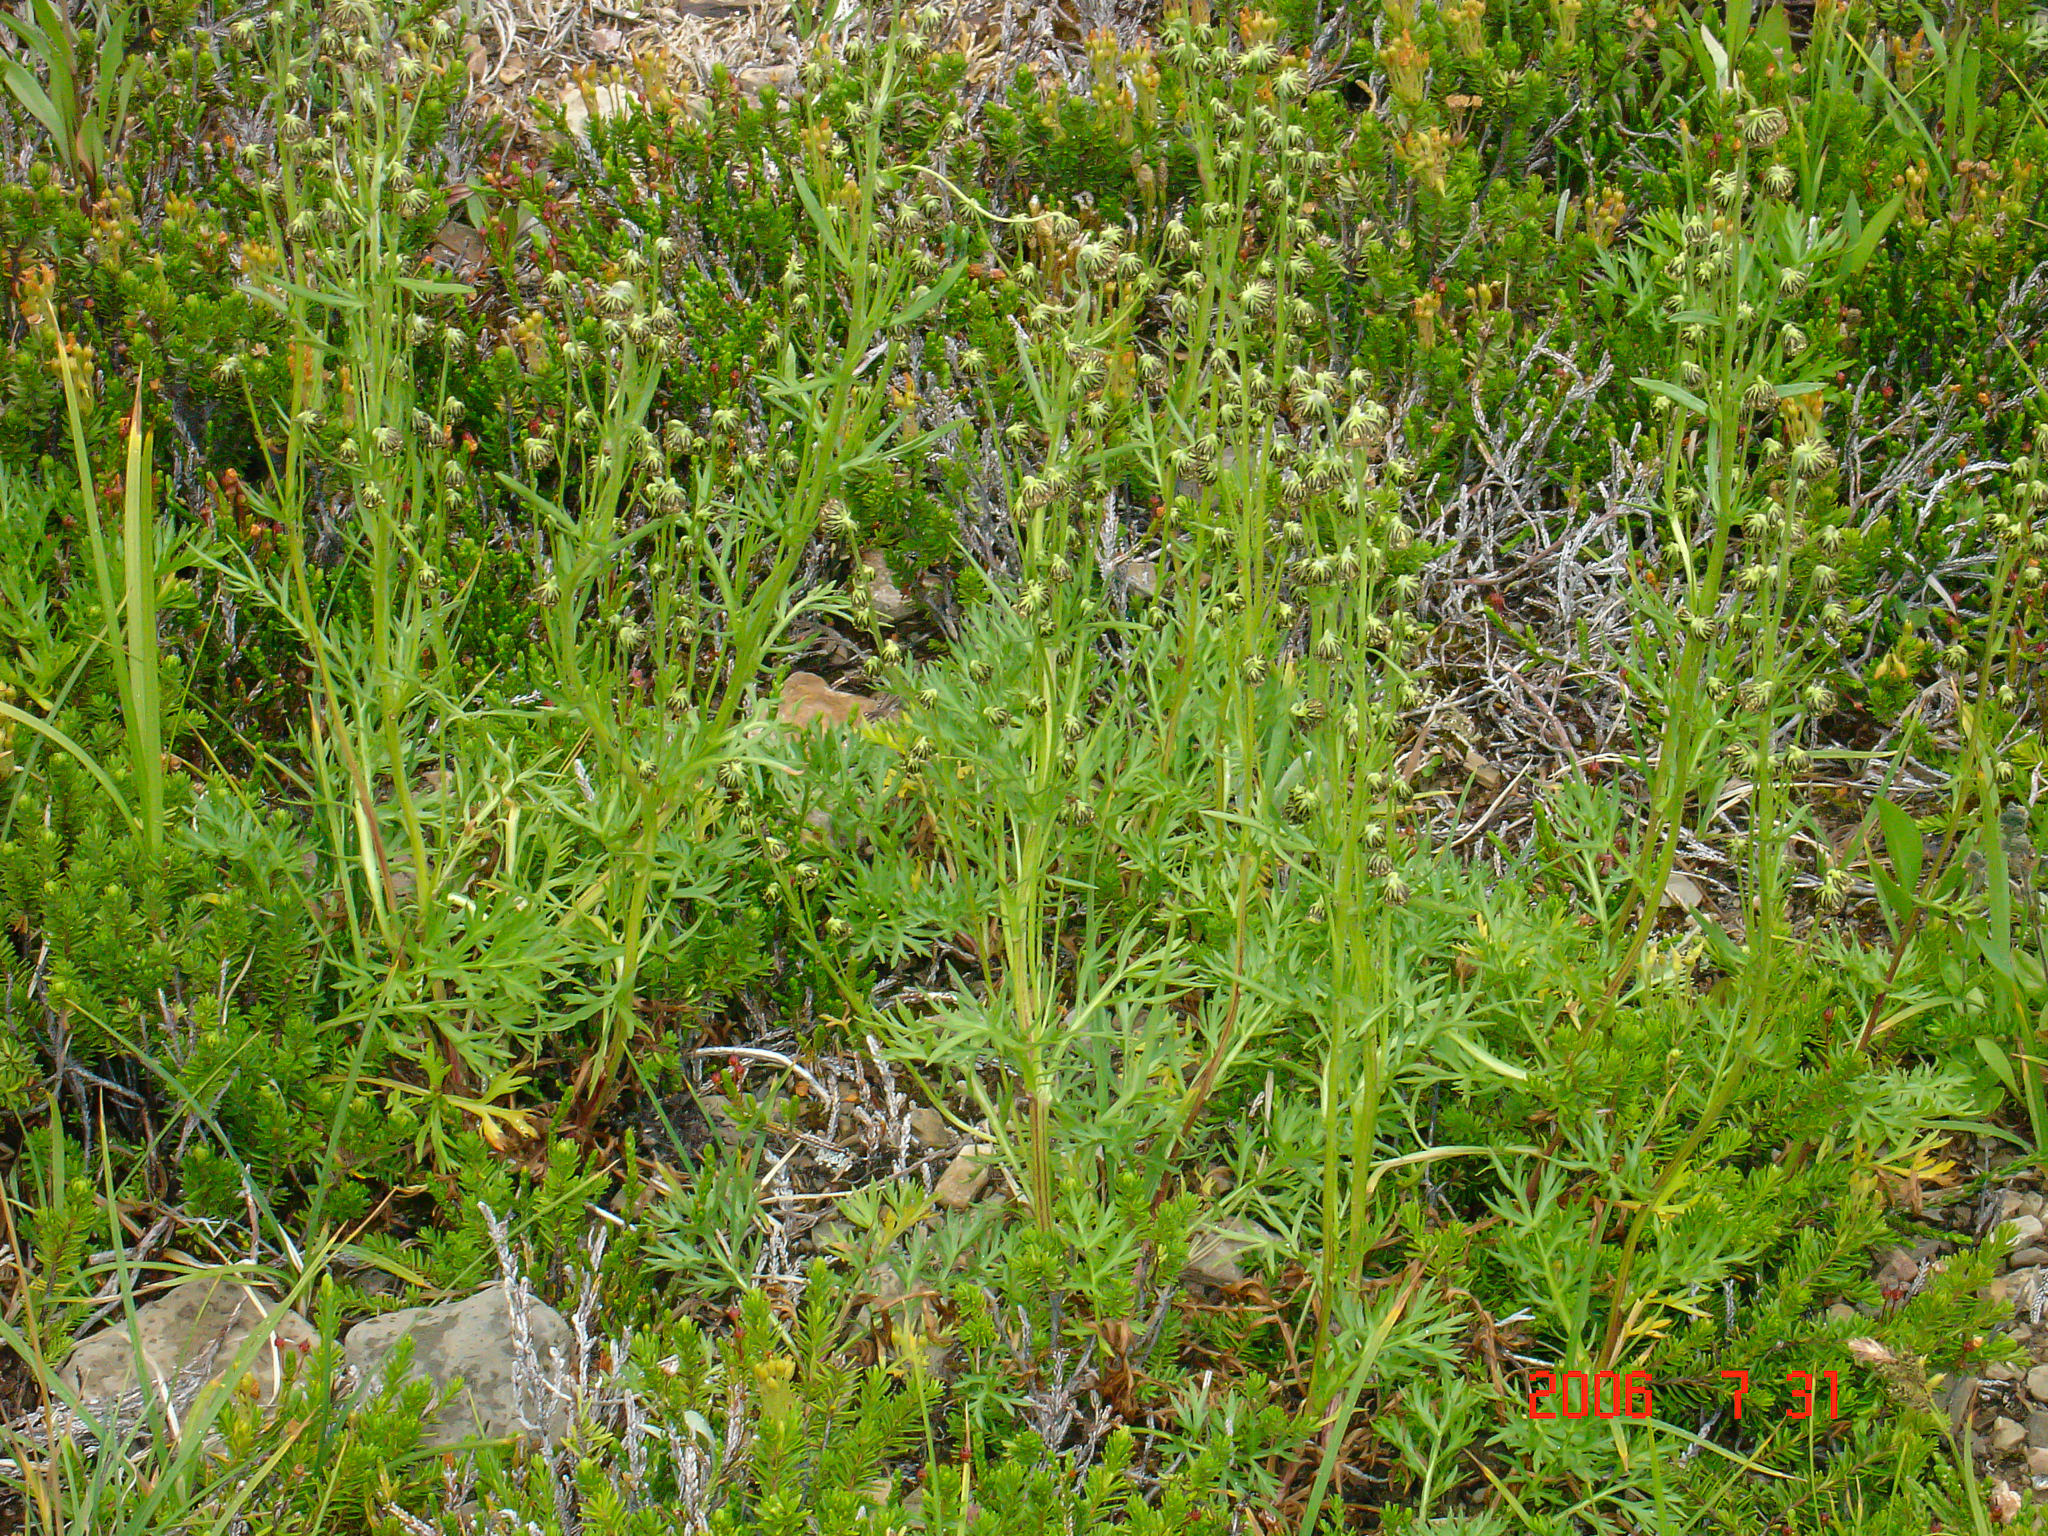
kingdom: Plantae
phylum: Tracheophyta
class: Magnoliopsida
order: Asterales
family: Asteraceae
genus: Artemisia
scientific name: Artemisia norvegica
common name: Norwegian mugwort
